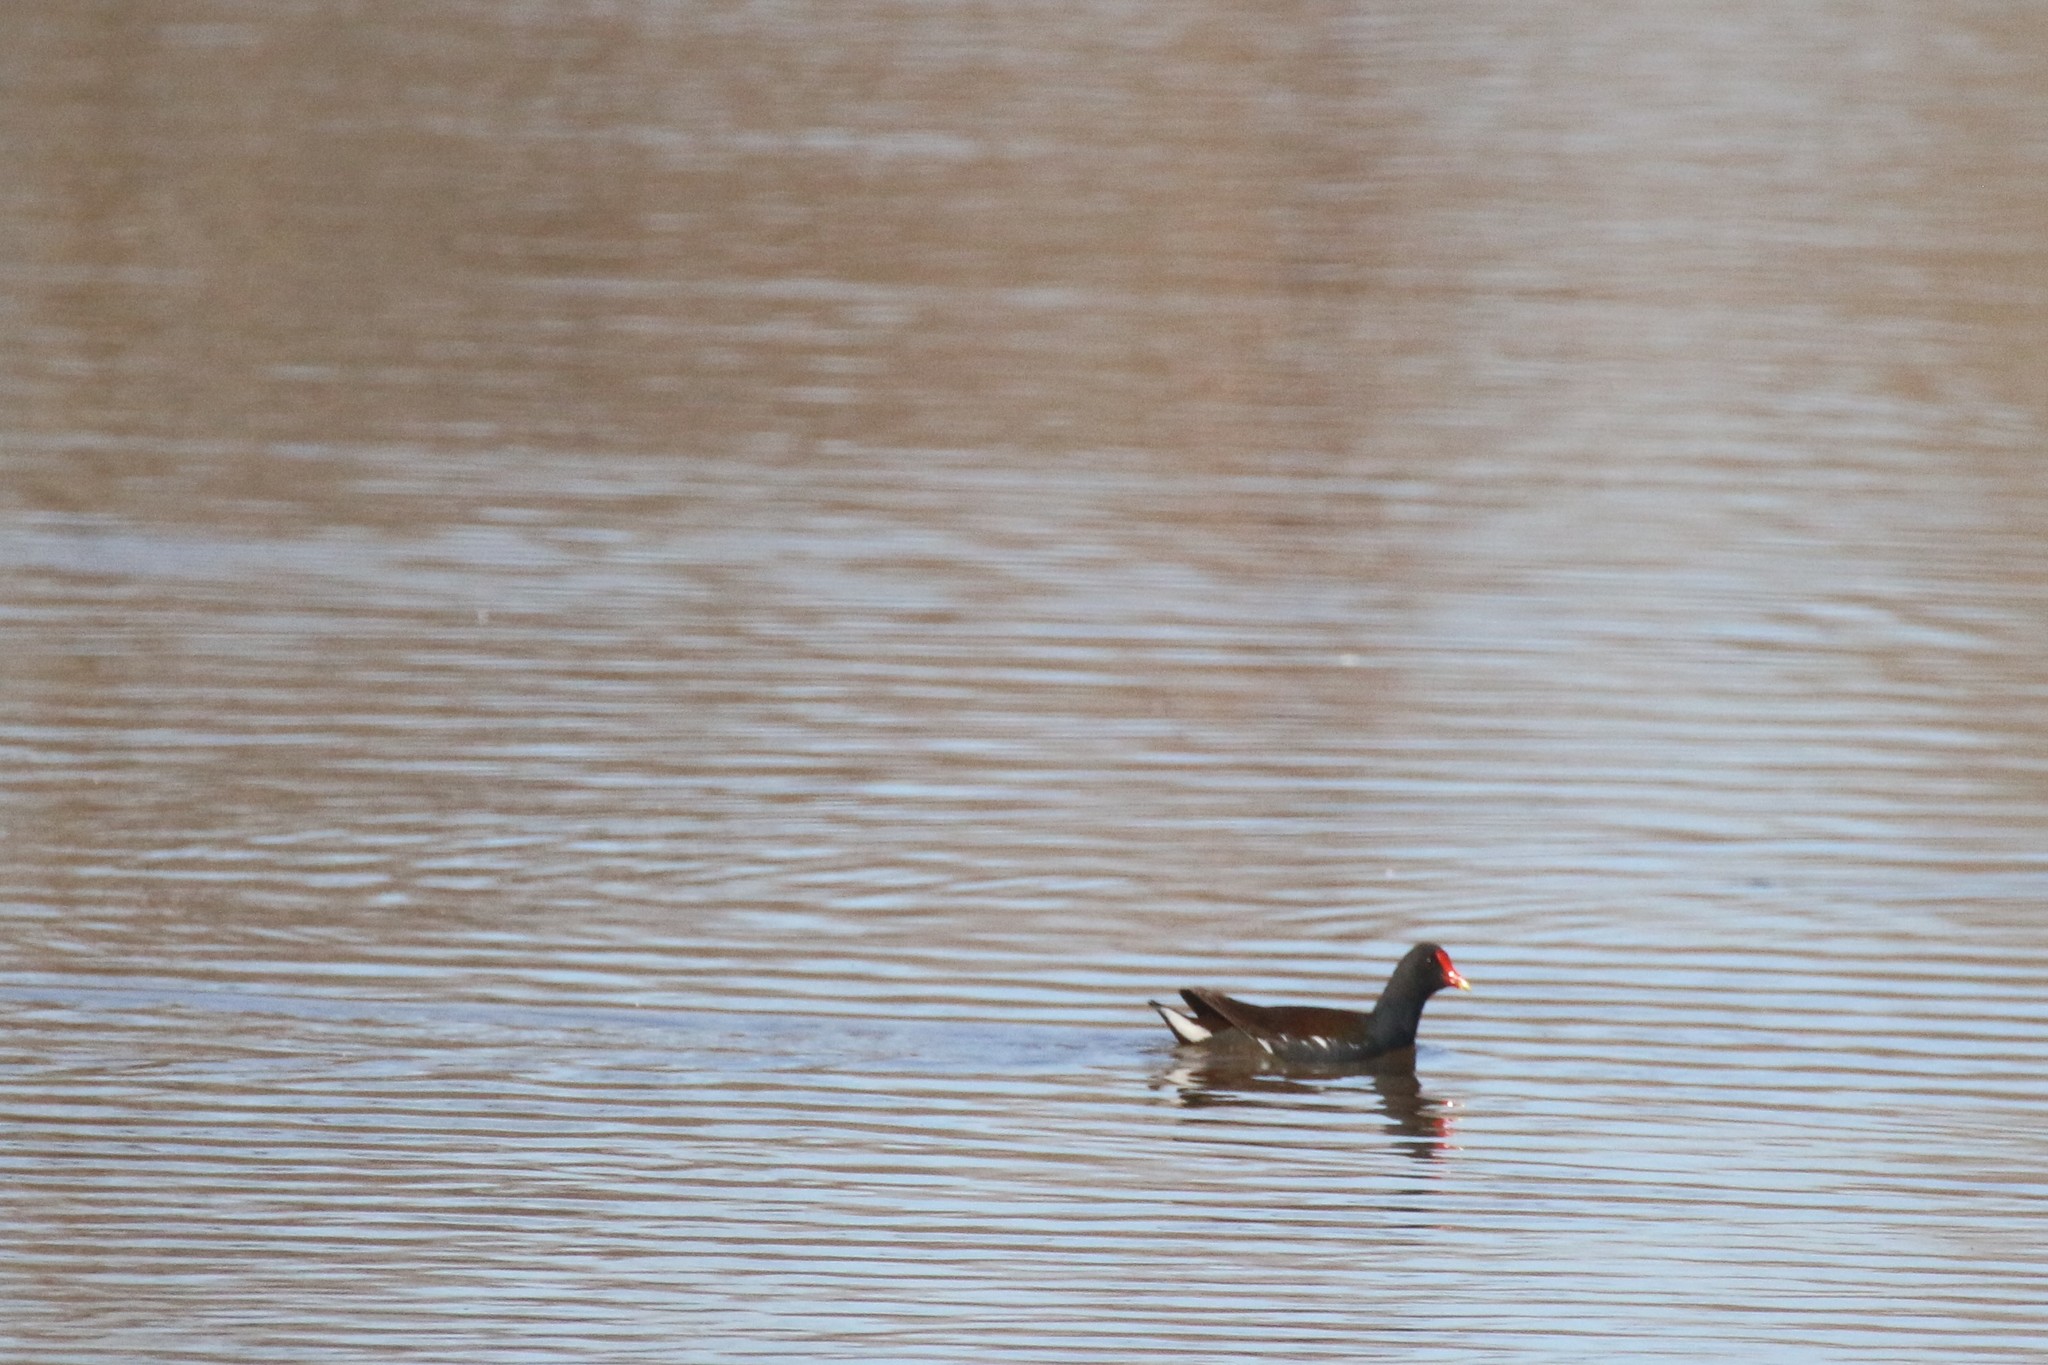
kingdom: Animalia
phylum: Chordata
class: Aves
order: Gruiformes
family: Rallidae
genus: Gallinula
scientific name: Gallinula chloropus
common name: Common moorhen
